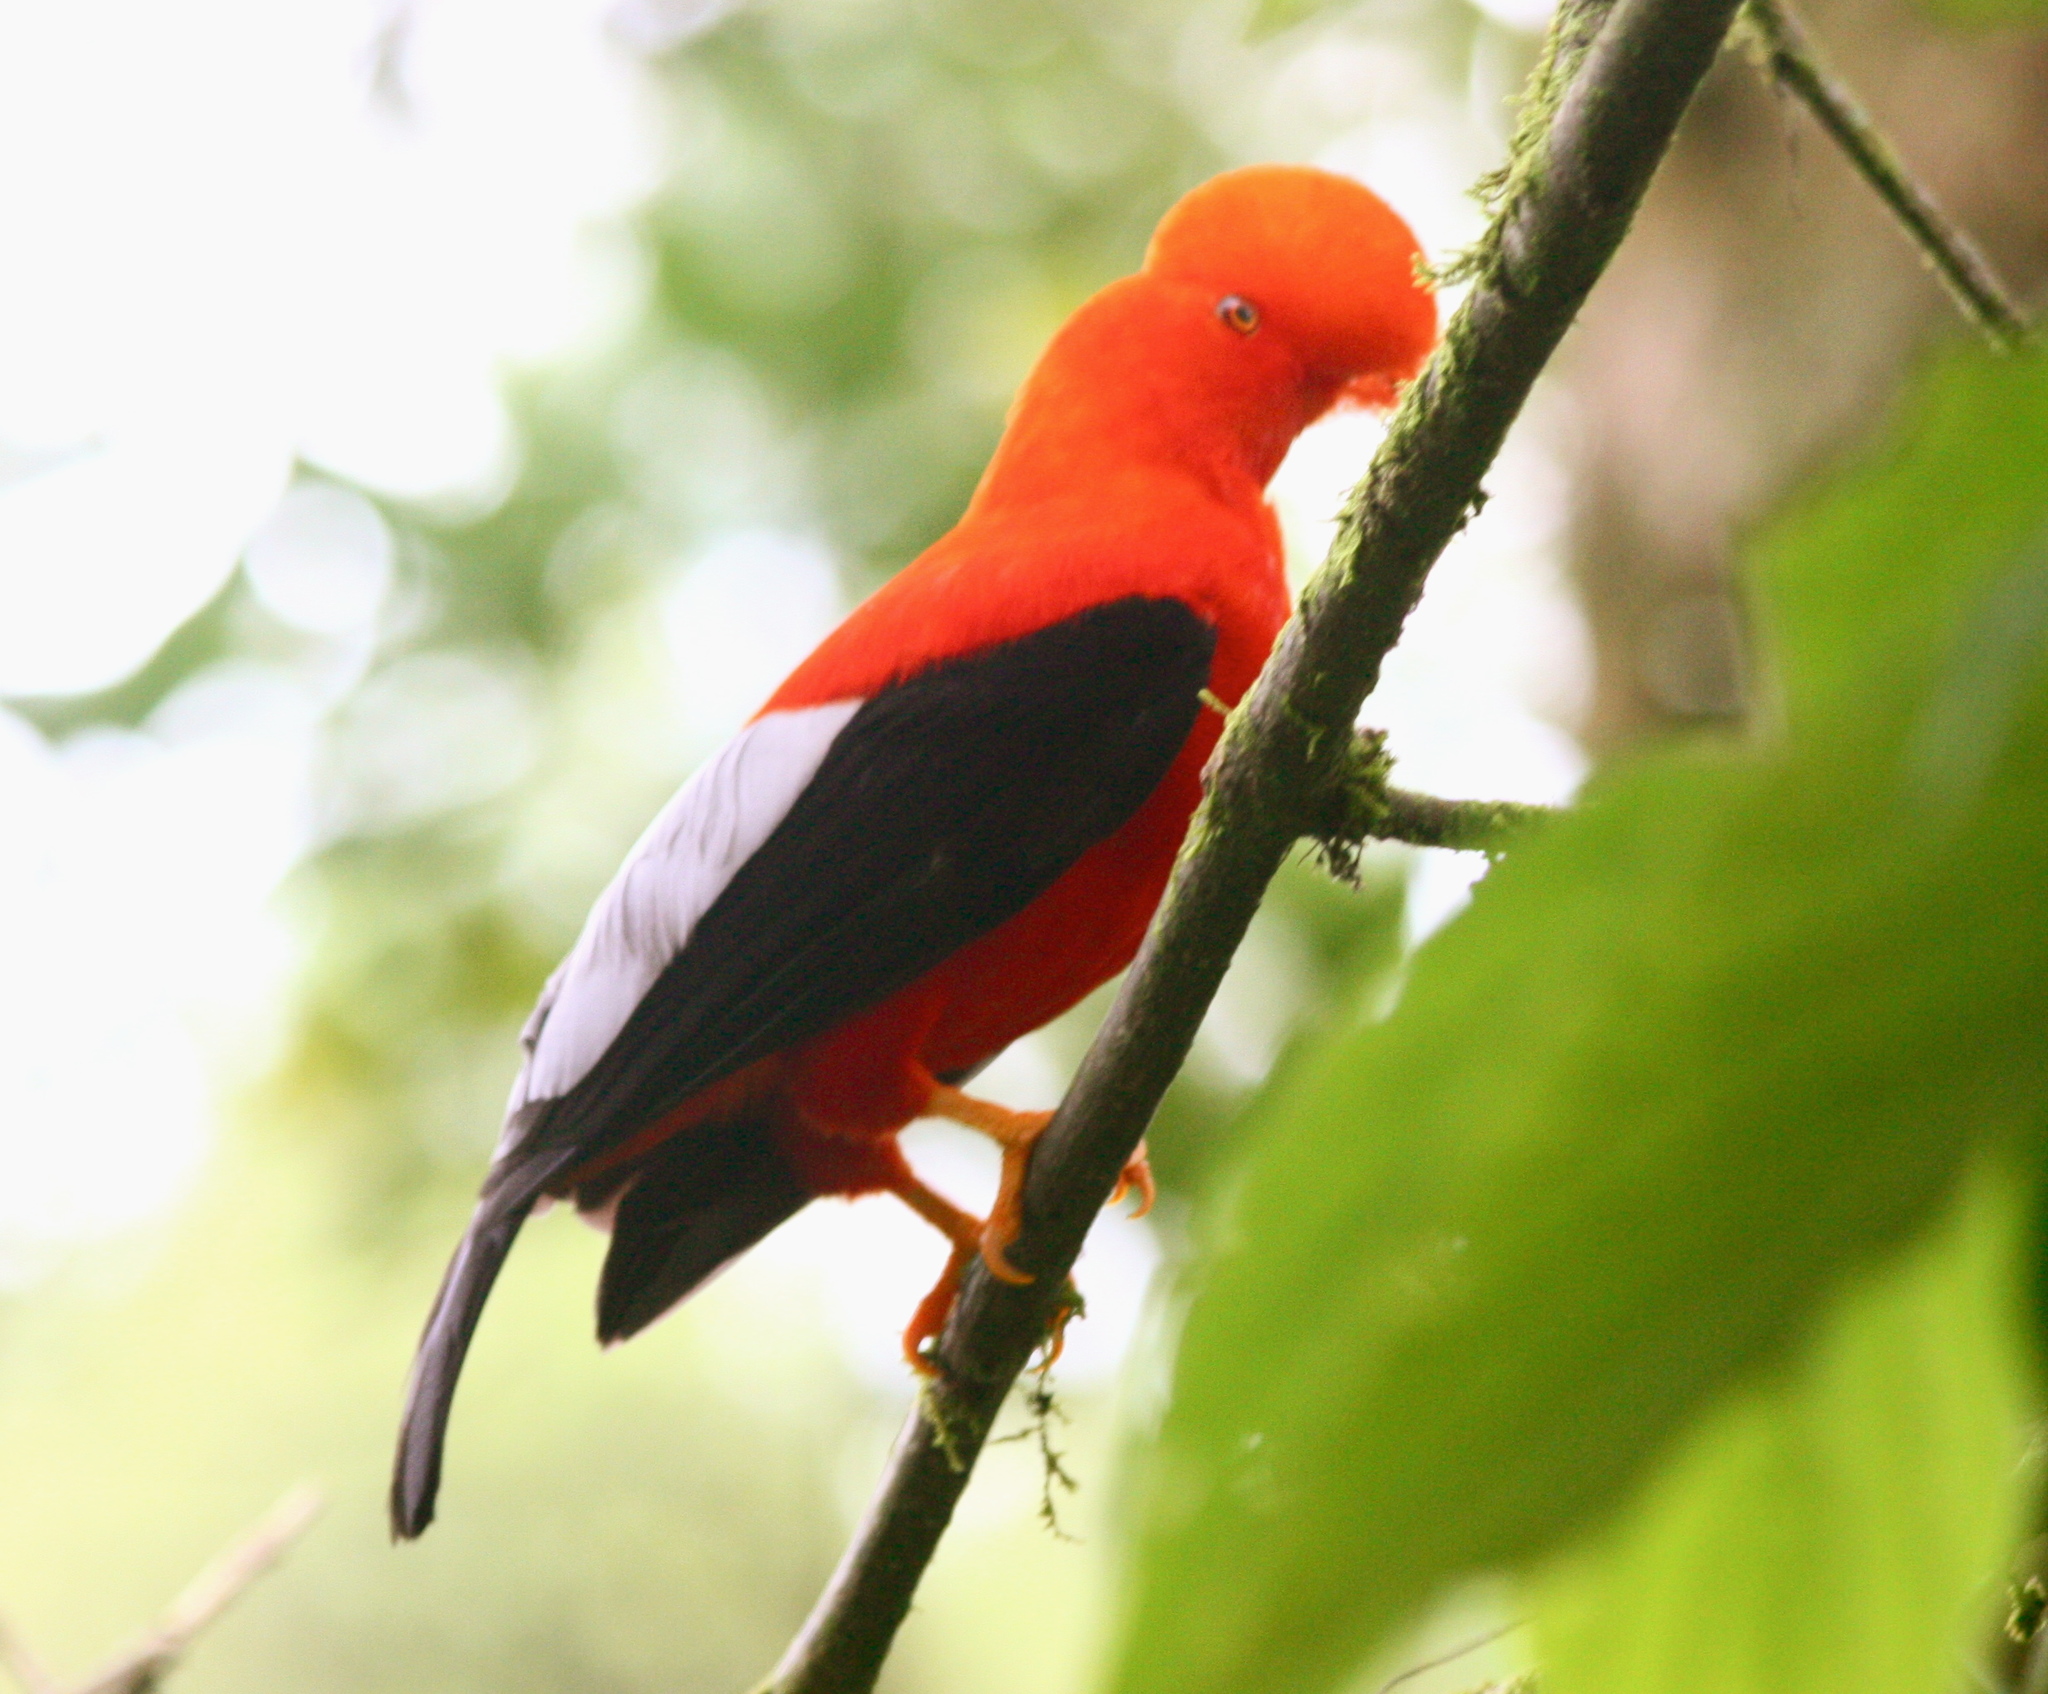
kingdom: Animalia
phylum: Chordata
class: Aves
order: Passeriformes
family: Cotingidae
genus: Rupicola
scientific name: Rupicola peruvianus
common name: Andean cock-of-the-rock
